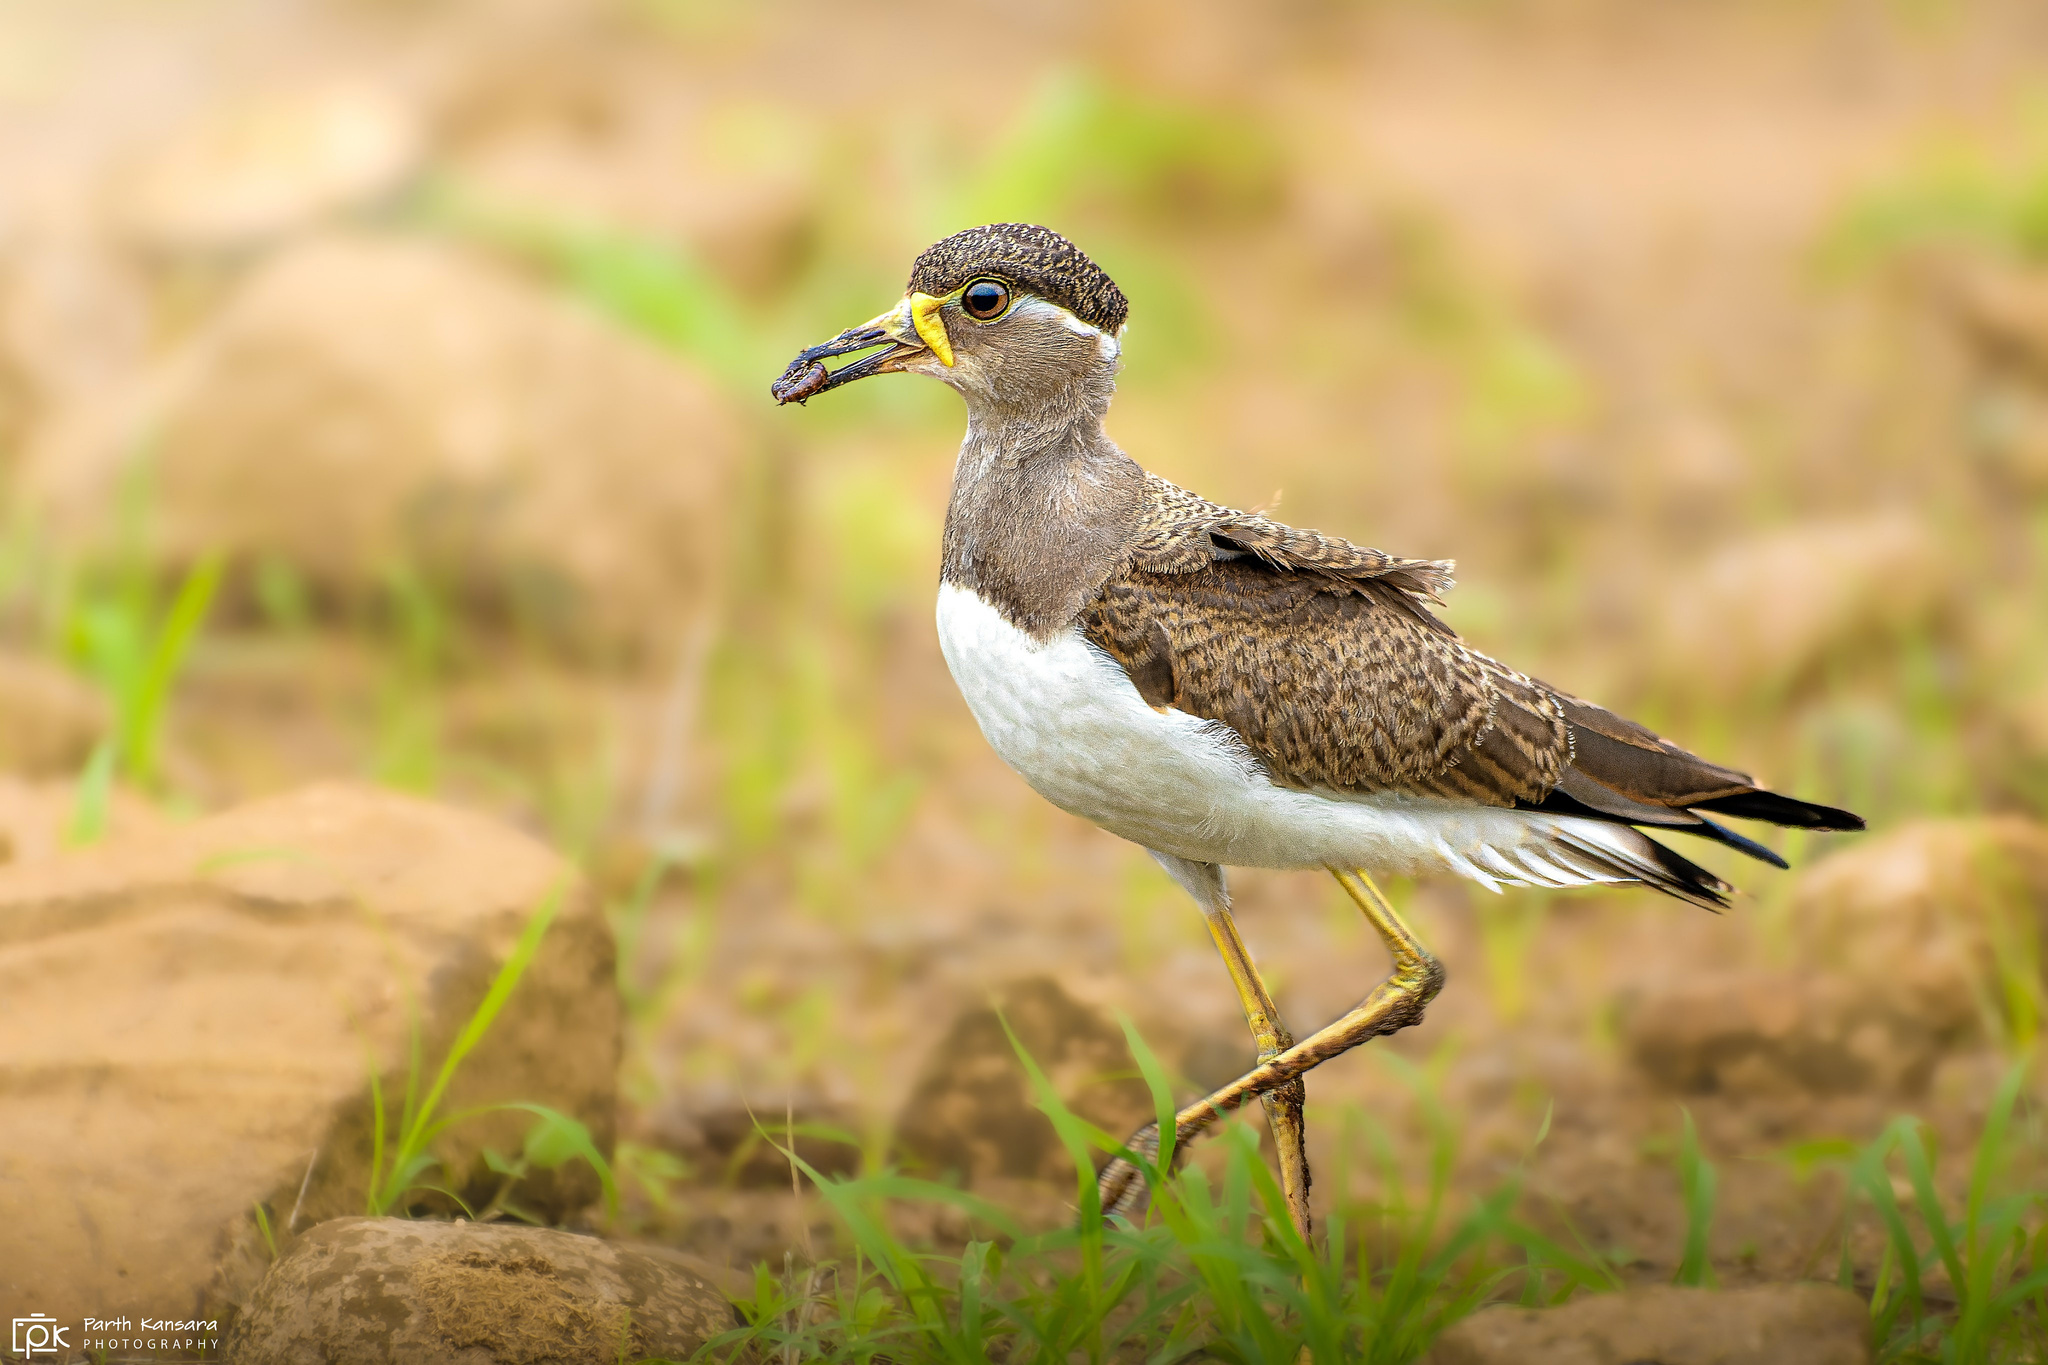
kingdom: Animalia
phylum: Chordata
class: Aves
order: Charadriiformes
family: Charadriidae
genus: Vanellus
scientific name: Vanellus malabaricus
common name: Yellow-wattled lapwing
